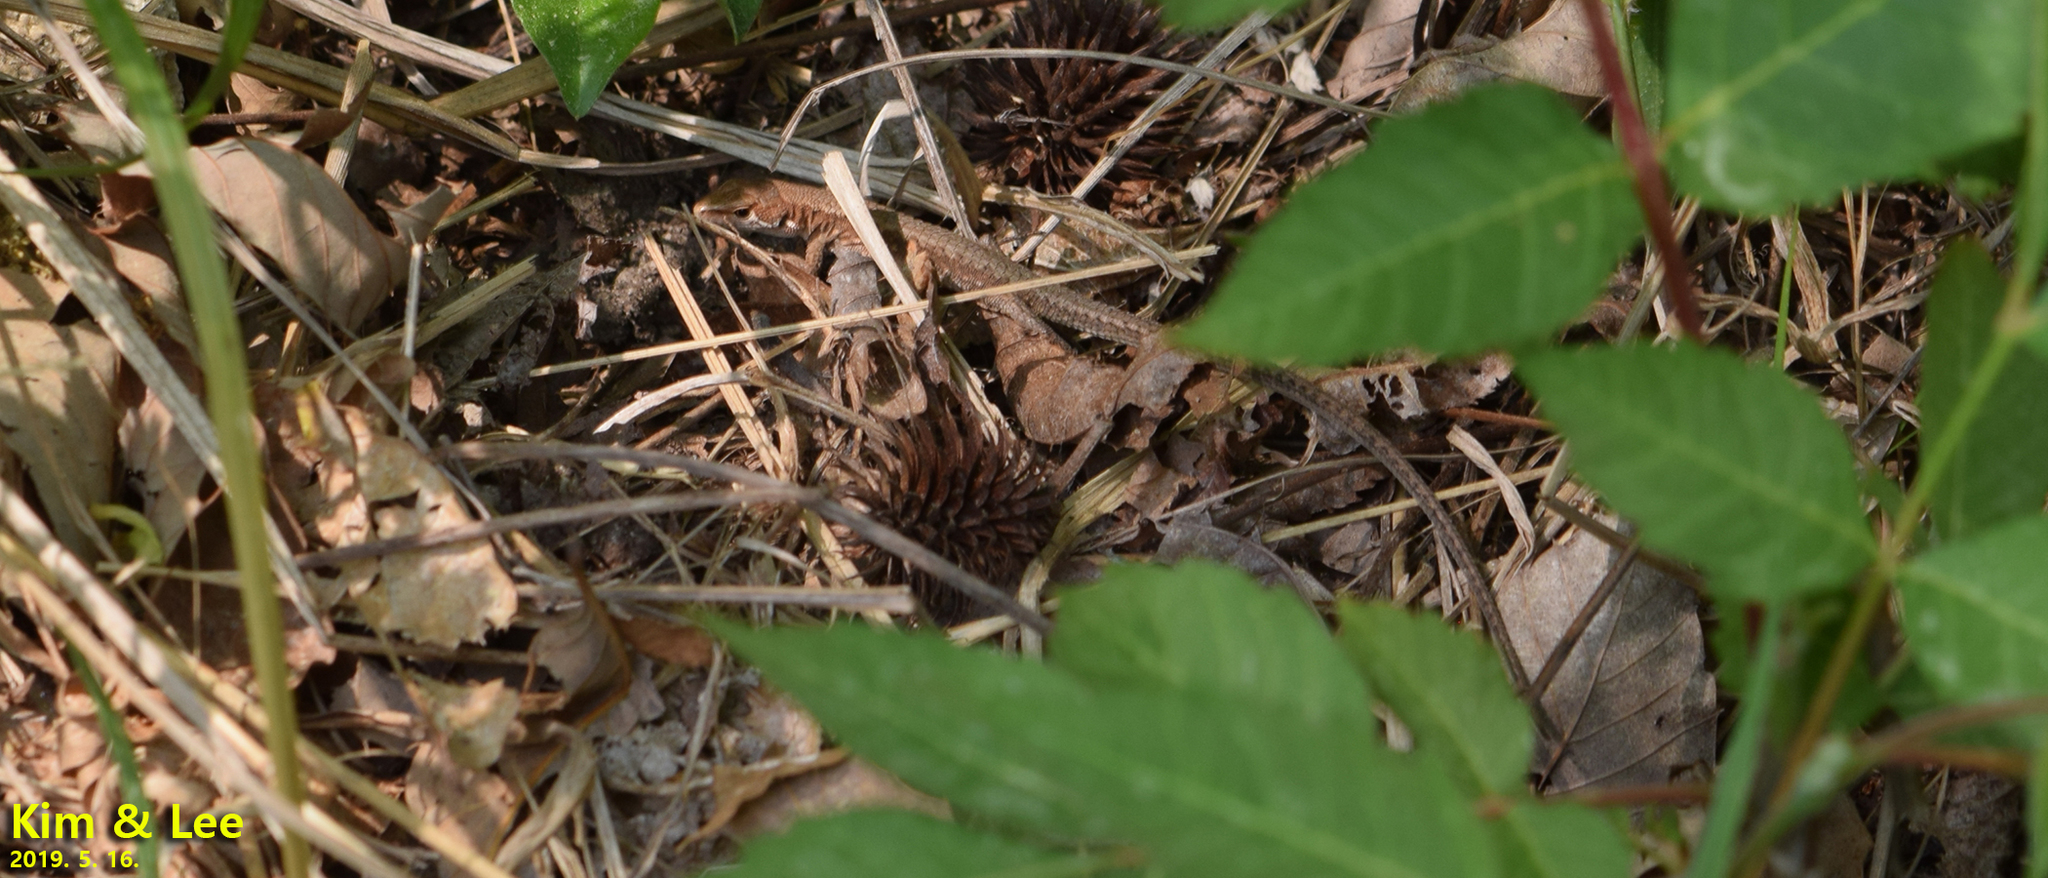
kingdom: Animalia
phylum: Chordata
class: Squamata
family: Lacertidae
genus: Takydromus
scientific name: Takydromus amurensis
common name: Amur grass lizard
